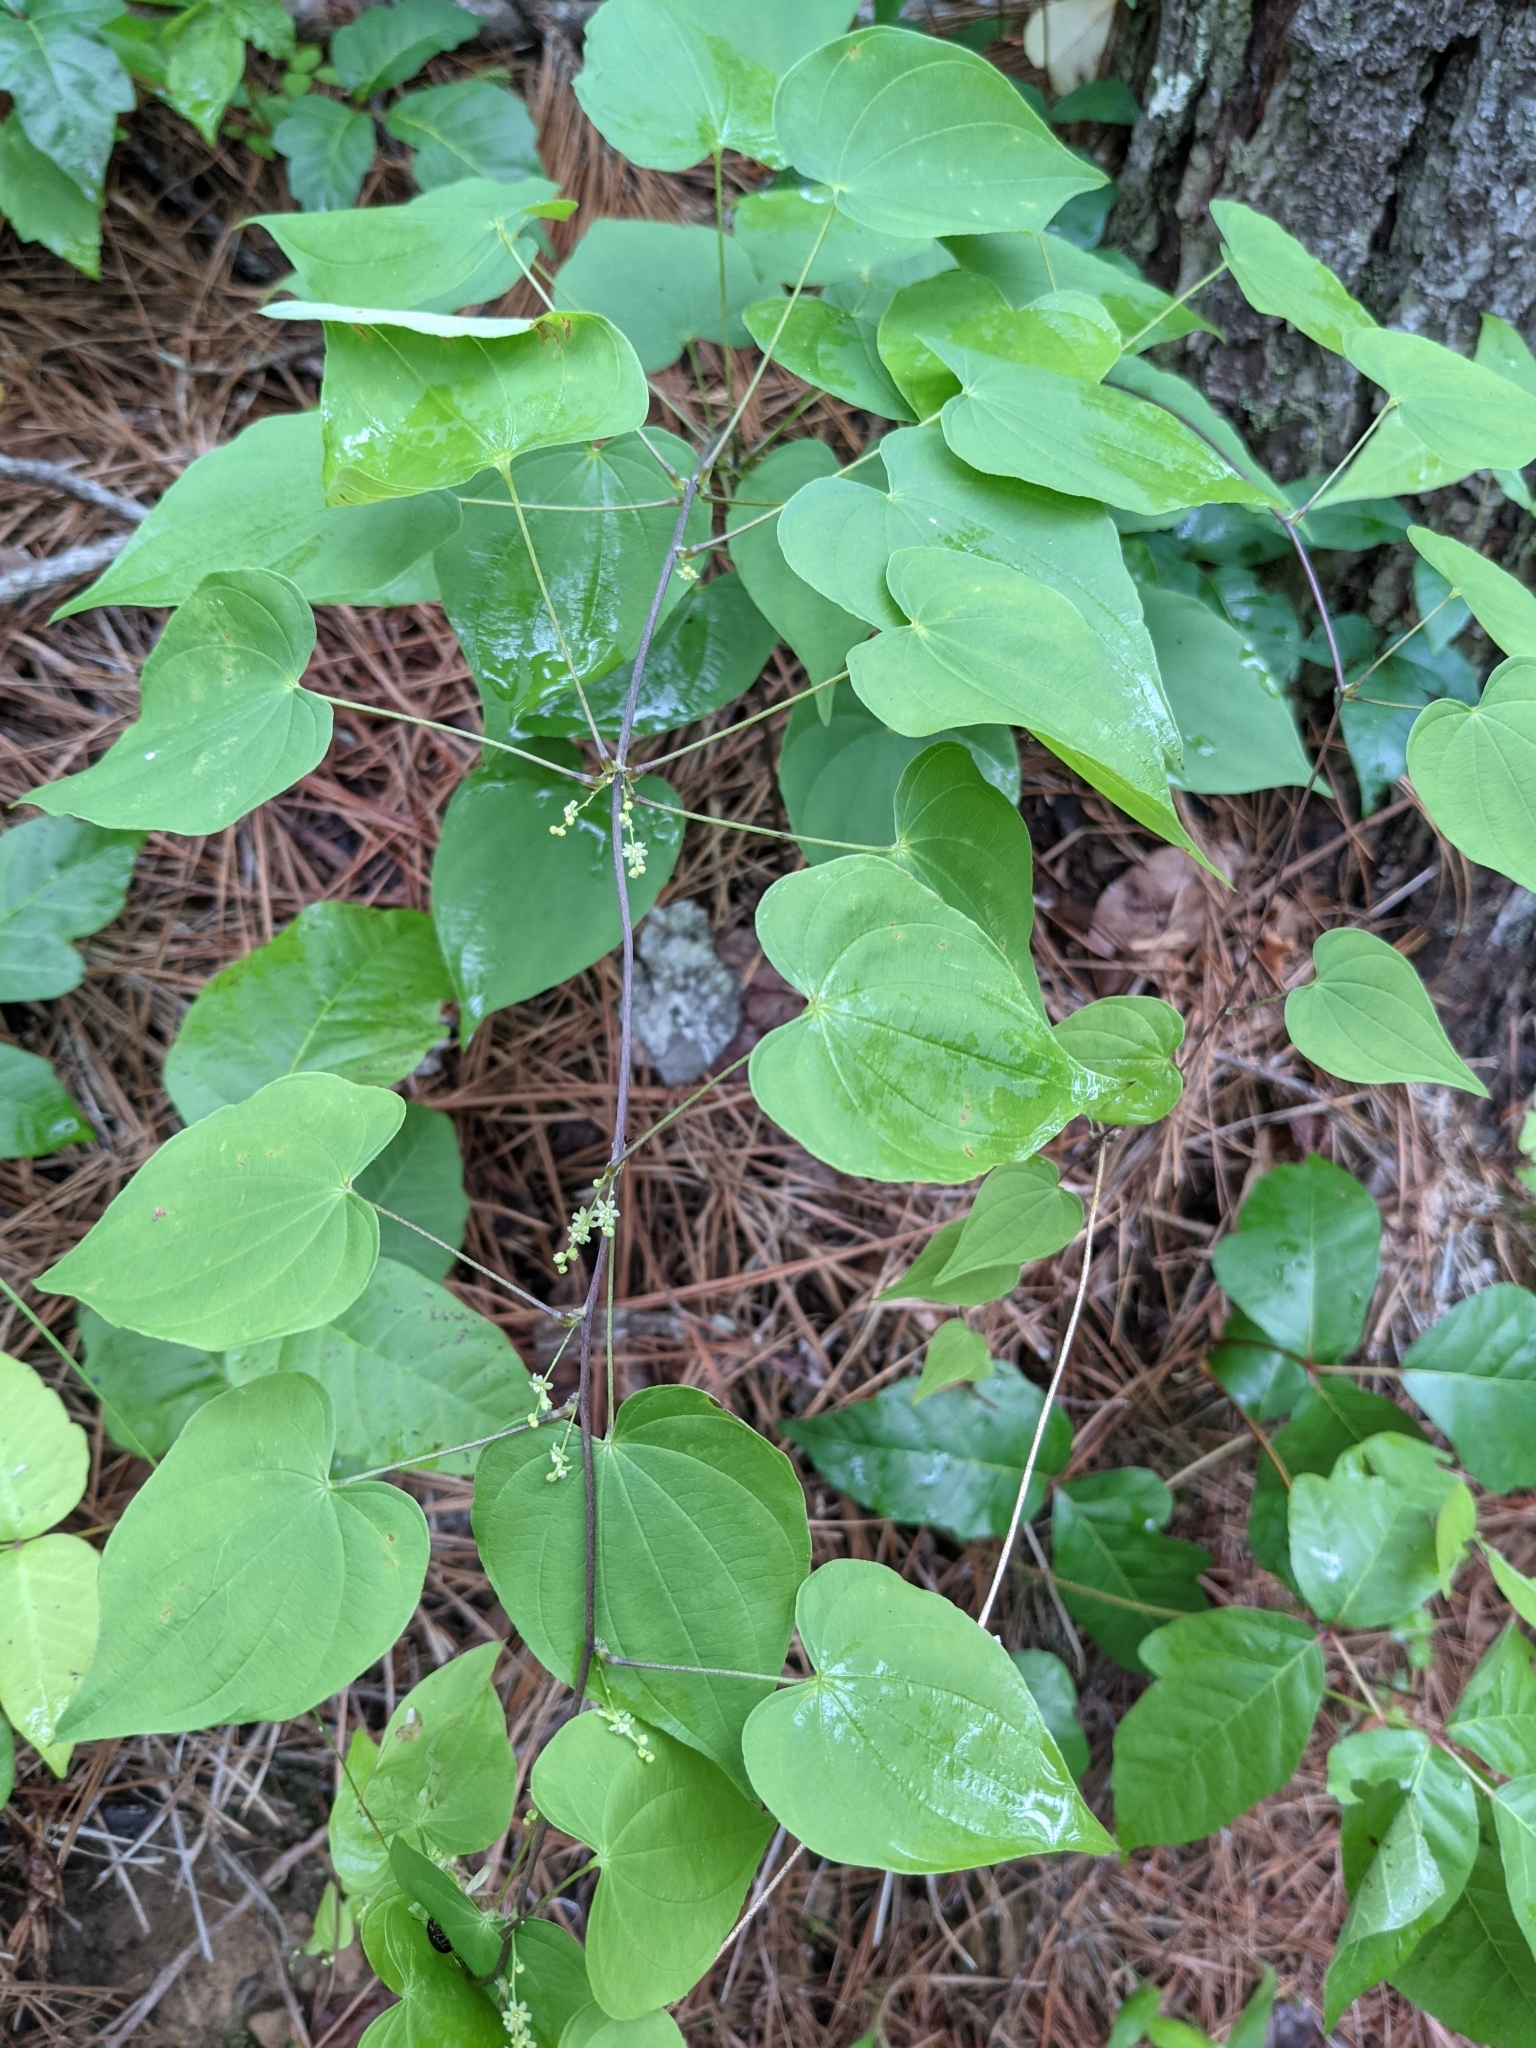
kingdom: Plantae
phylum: Tracheophyta
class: Liliopsida
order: Dioscoreales
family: Dioscoreaceae
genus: Dioscorea
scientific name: Dioscorea villosa
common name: Wild yam
